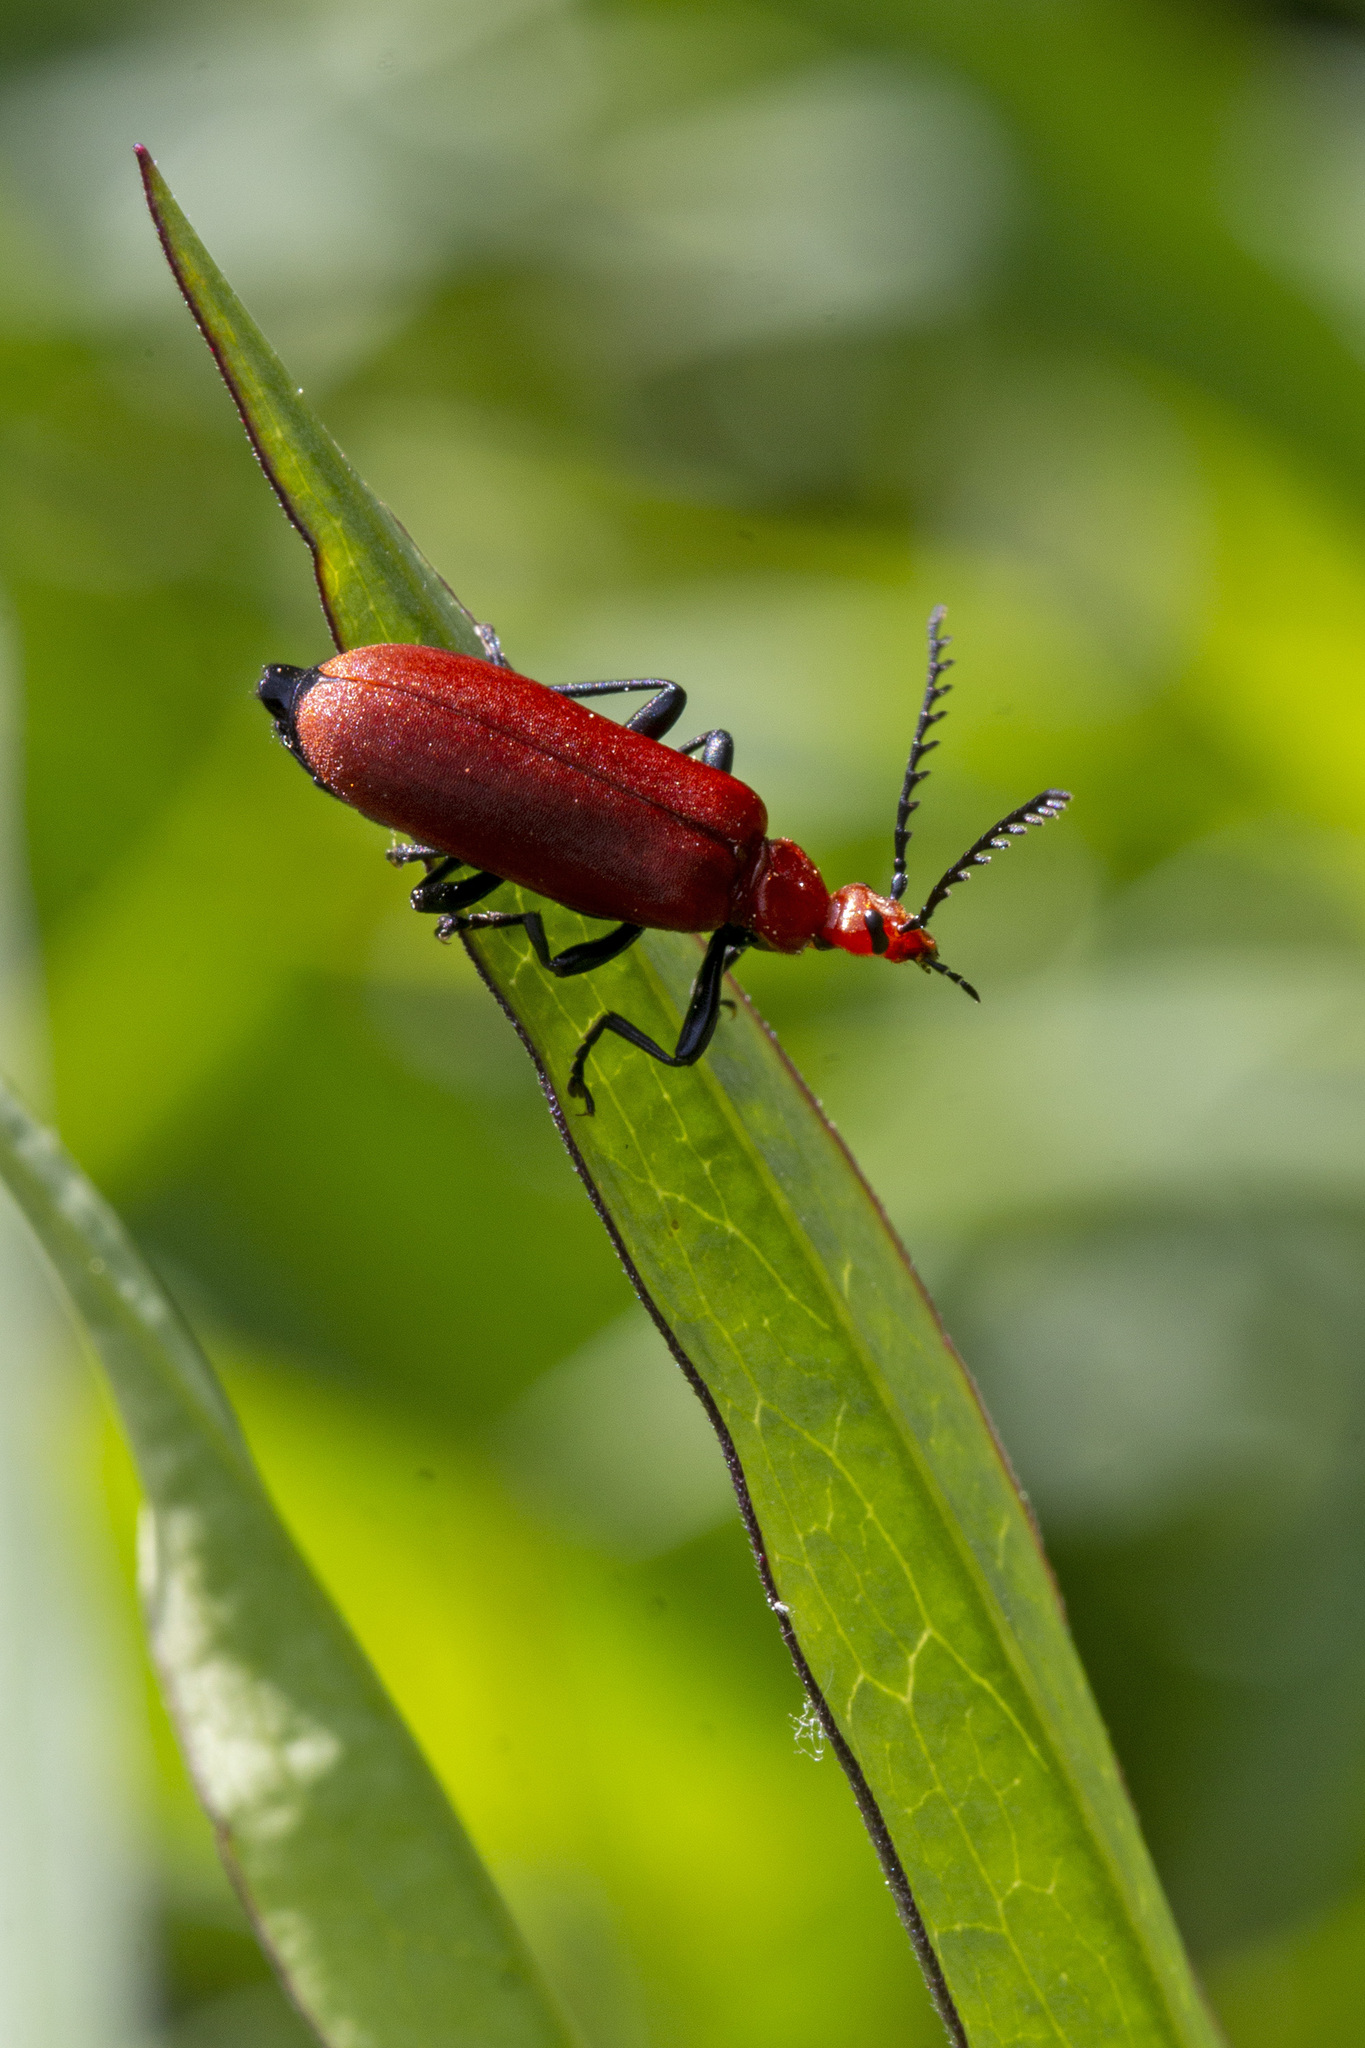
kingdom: Animalia
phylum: Arthropoda
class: Insecta
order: Coleoptera
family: Pyrochroidae
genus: Pyrochroa
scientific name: Pyrochroa serraticornis
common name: Red-headed cardinal beetle
